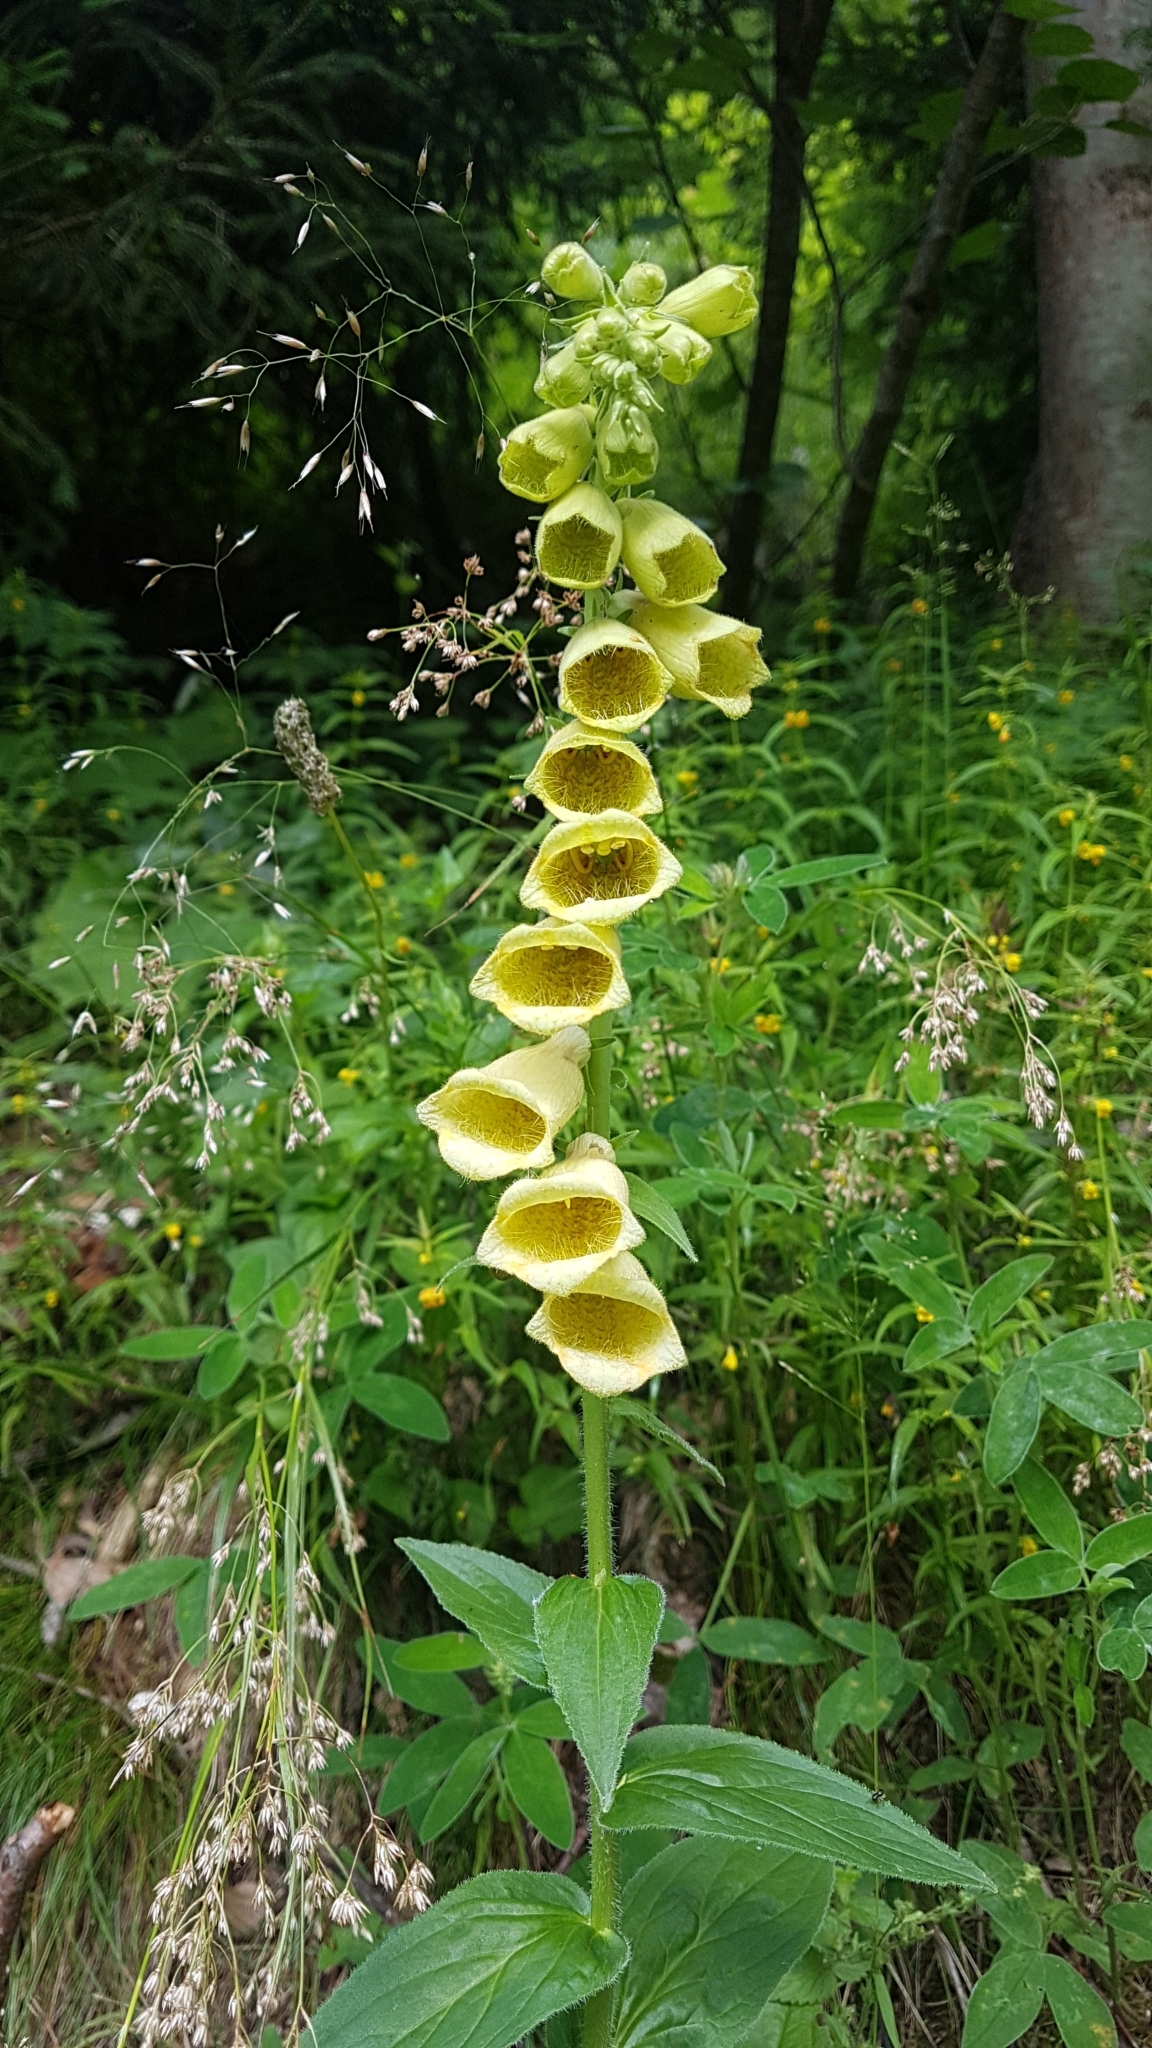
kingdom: Plantae
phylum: Tracheophyta
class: Magnoliopsida
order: Lamiales
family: Plantaginaceae
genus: Digitalis
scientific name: Digitalis grandiflora
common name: Yellow foxglove
